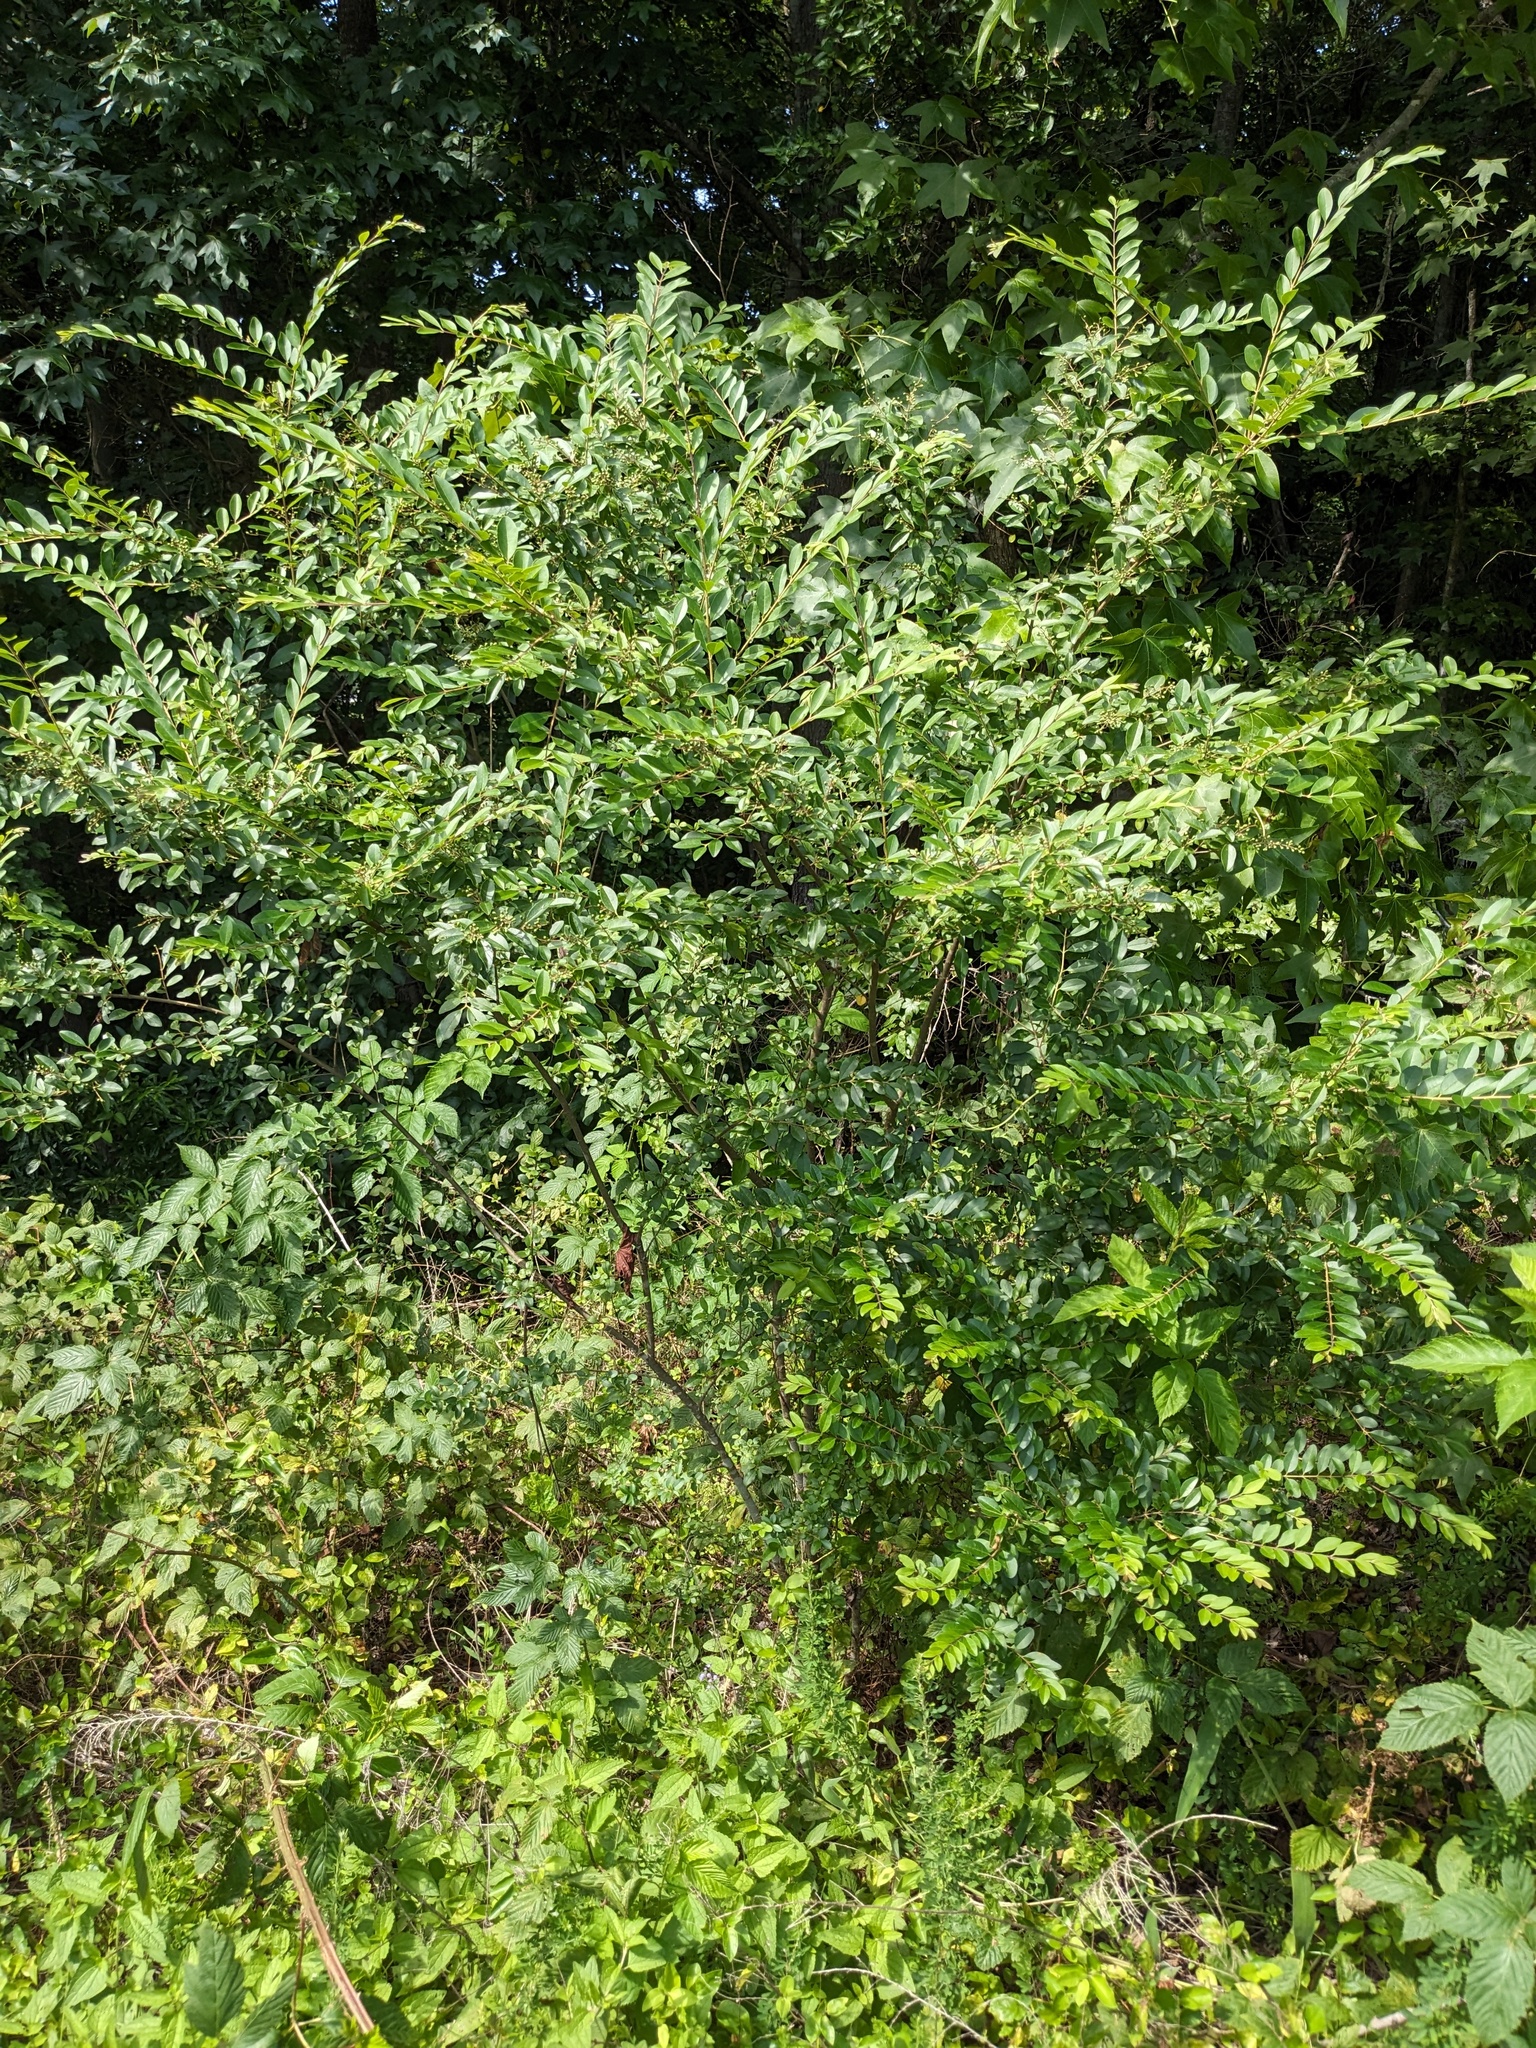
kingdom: Plantae
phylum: Tracheophyta
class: Magnoliopsida
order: Lamiales
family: Oleaceae
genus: Ligustrum
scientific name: Ligustrum sinense
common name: Chinese privet
